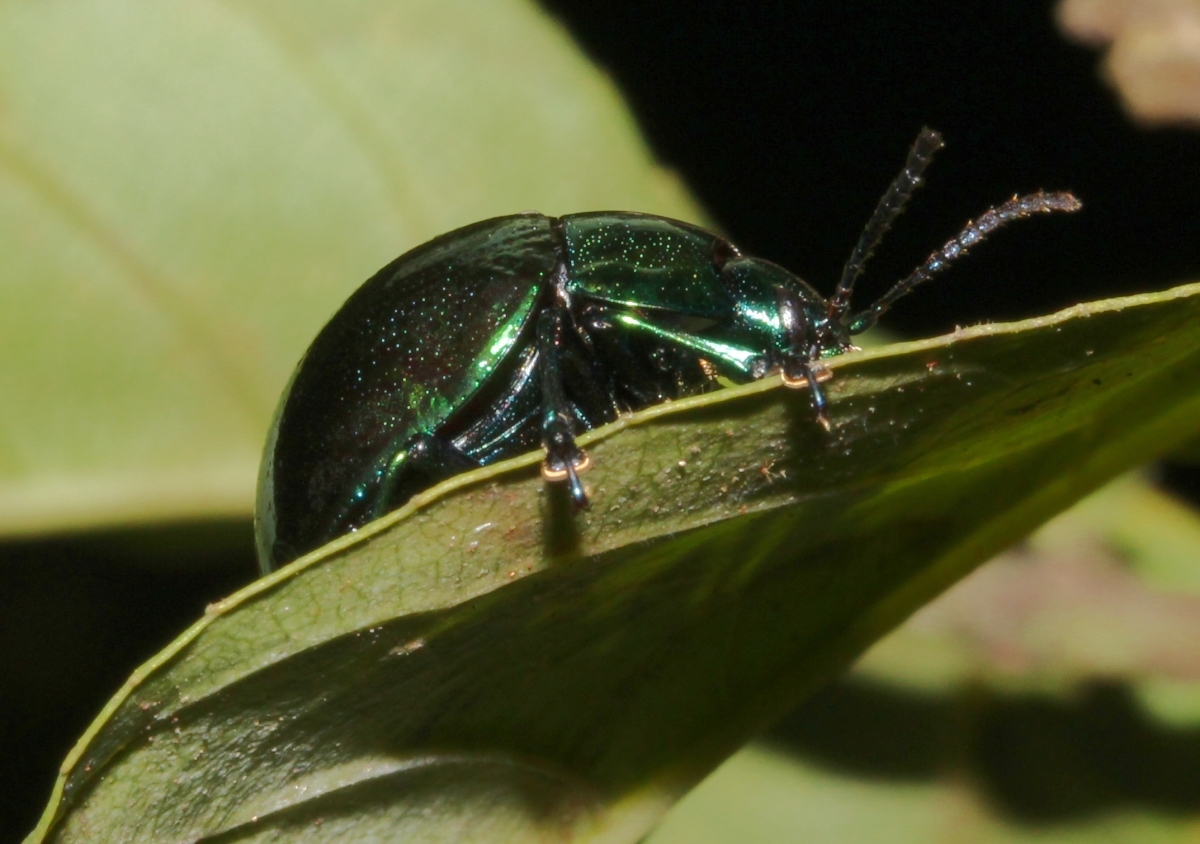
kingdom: Animalia
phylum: Arthropoda
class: Insecta
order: Coleoptera
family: Chrysomelidae
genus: Platyphora
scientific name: Platyphora
